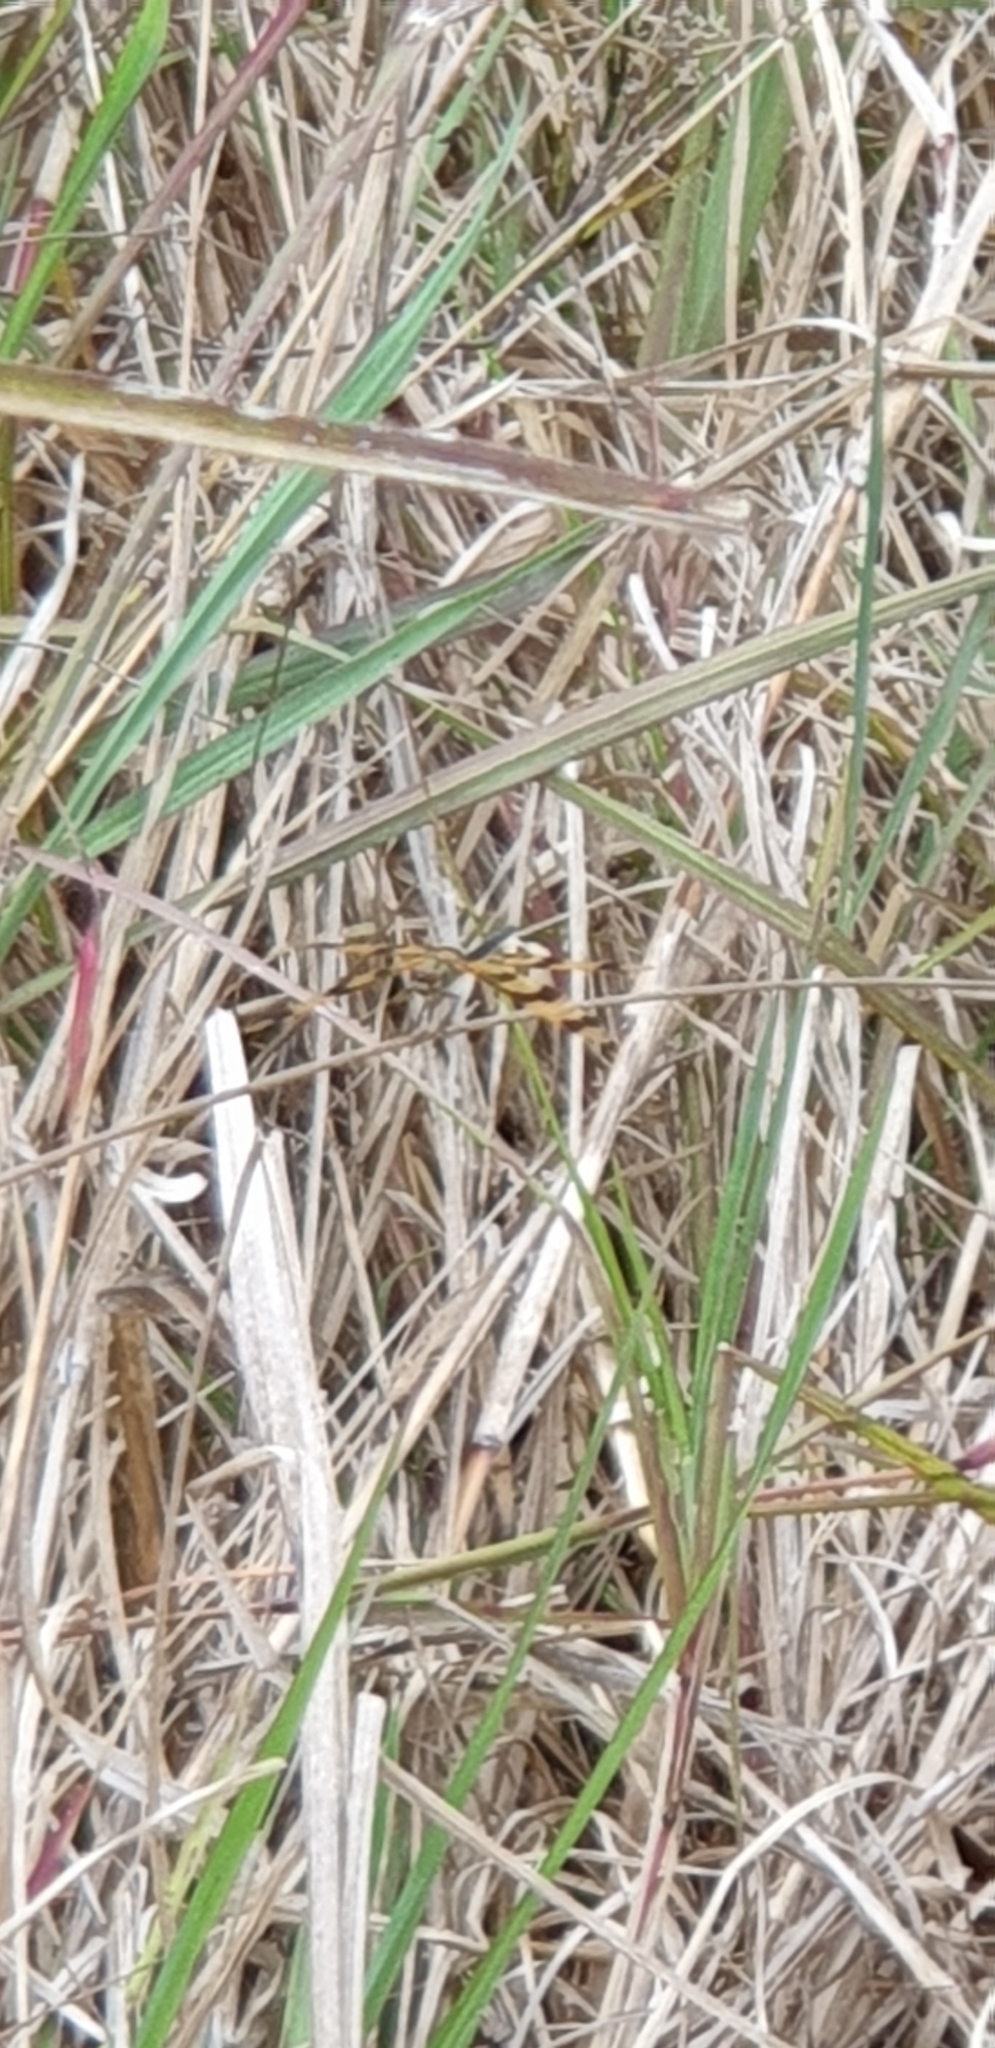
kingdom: Animalia
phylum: Arthropoda
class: Insecta
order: Odonata
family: Libellulidae
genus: Rhyothemis
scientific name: Rhyothemis graphiptera
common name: Graphic flutterer
